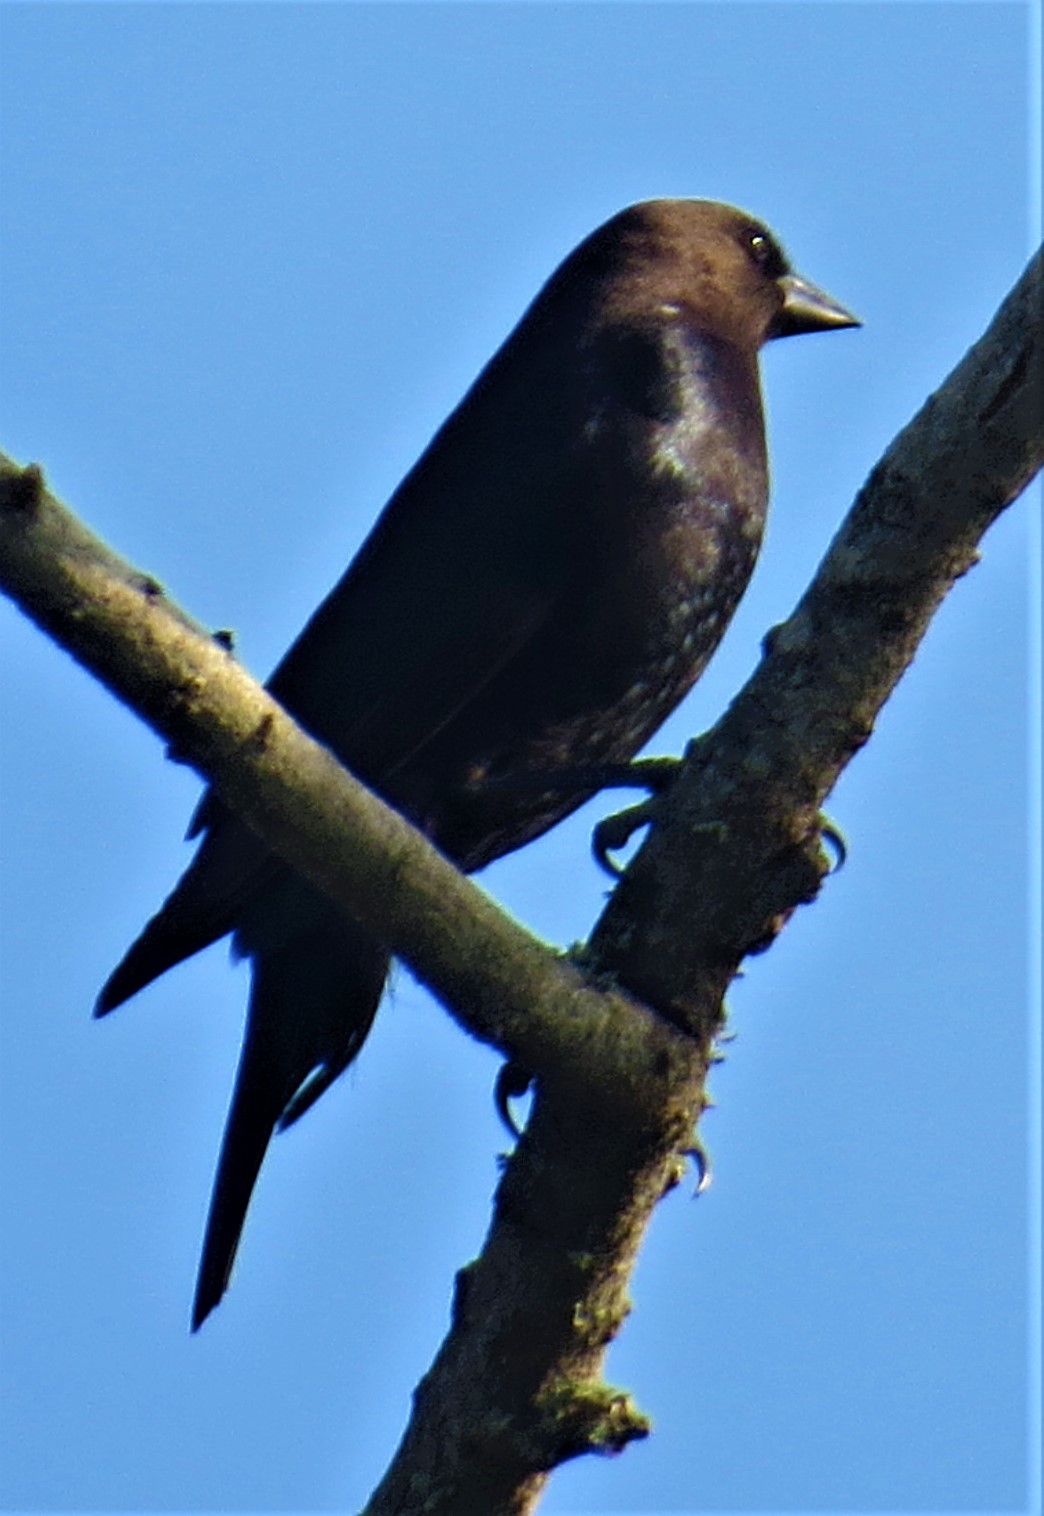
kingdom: Animalia
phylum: Chordata
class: Aves
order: Passeriformes
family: Icteridae
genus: Molothrus
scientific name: Molothrus ater
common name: Brown-headed cowbird
